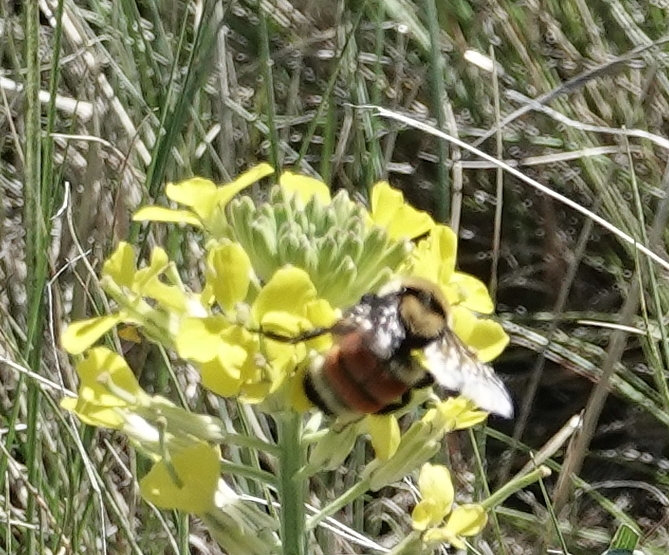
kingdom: Animalia
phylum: Arthropoda
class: Insecta
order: Hymenoptera
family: Apidae
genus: Bombus
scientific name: Bombus huntii
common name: Hunt bumble bee
